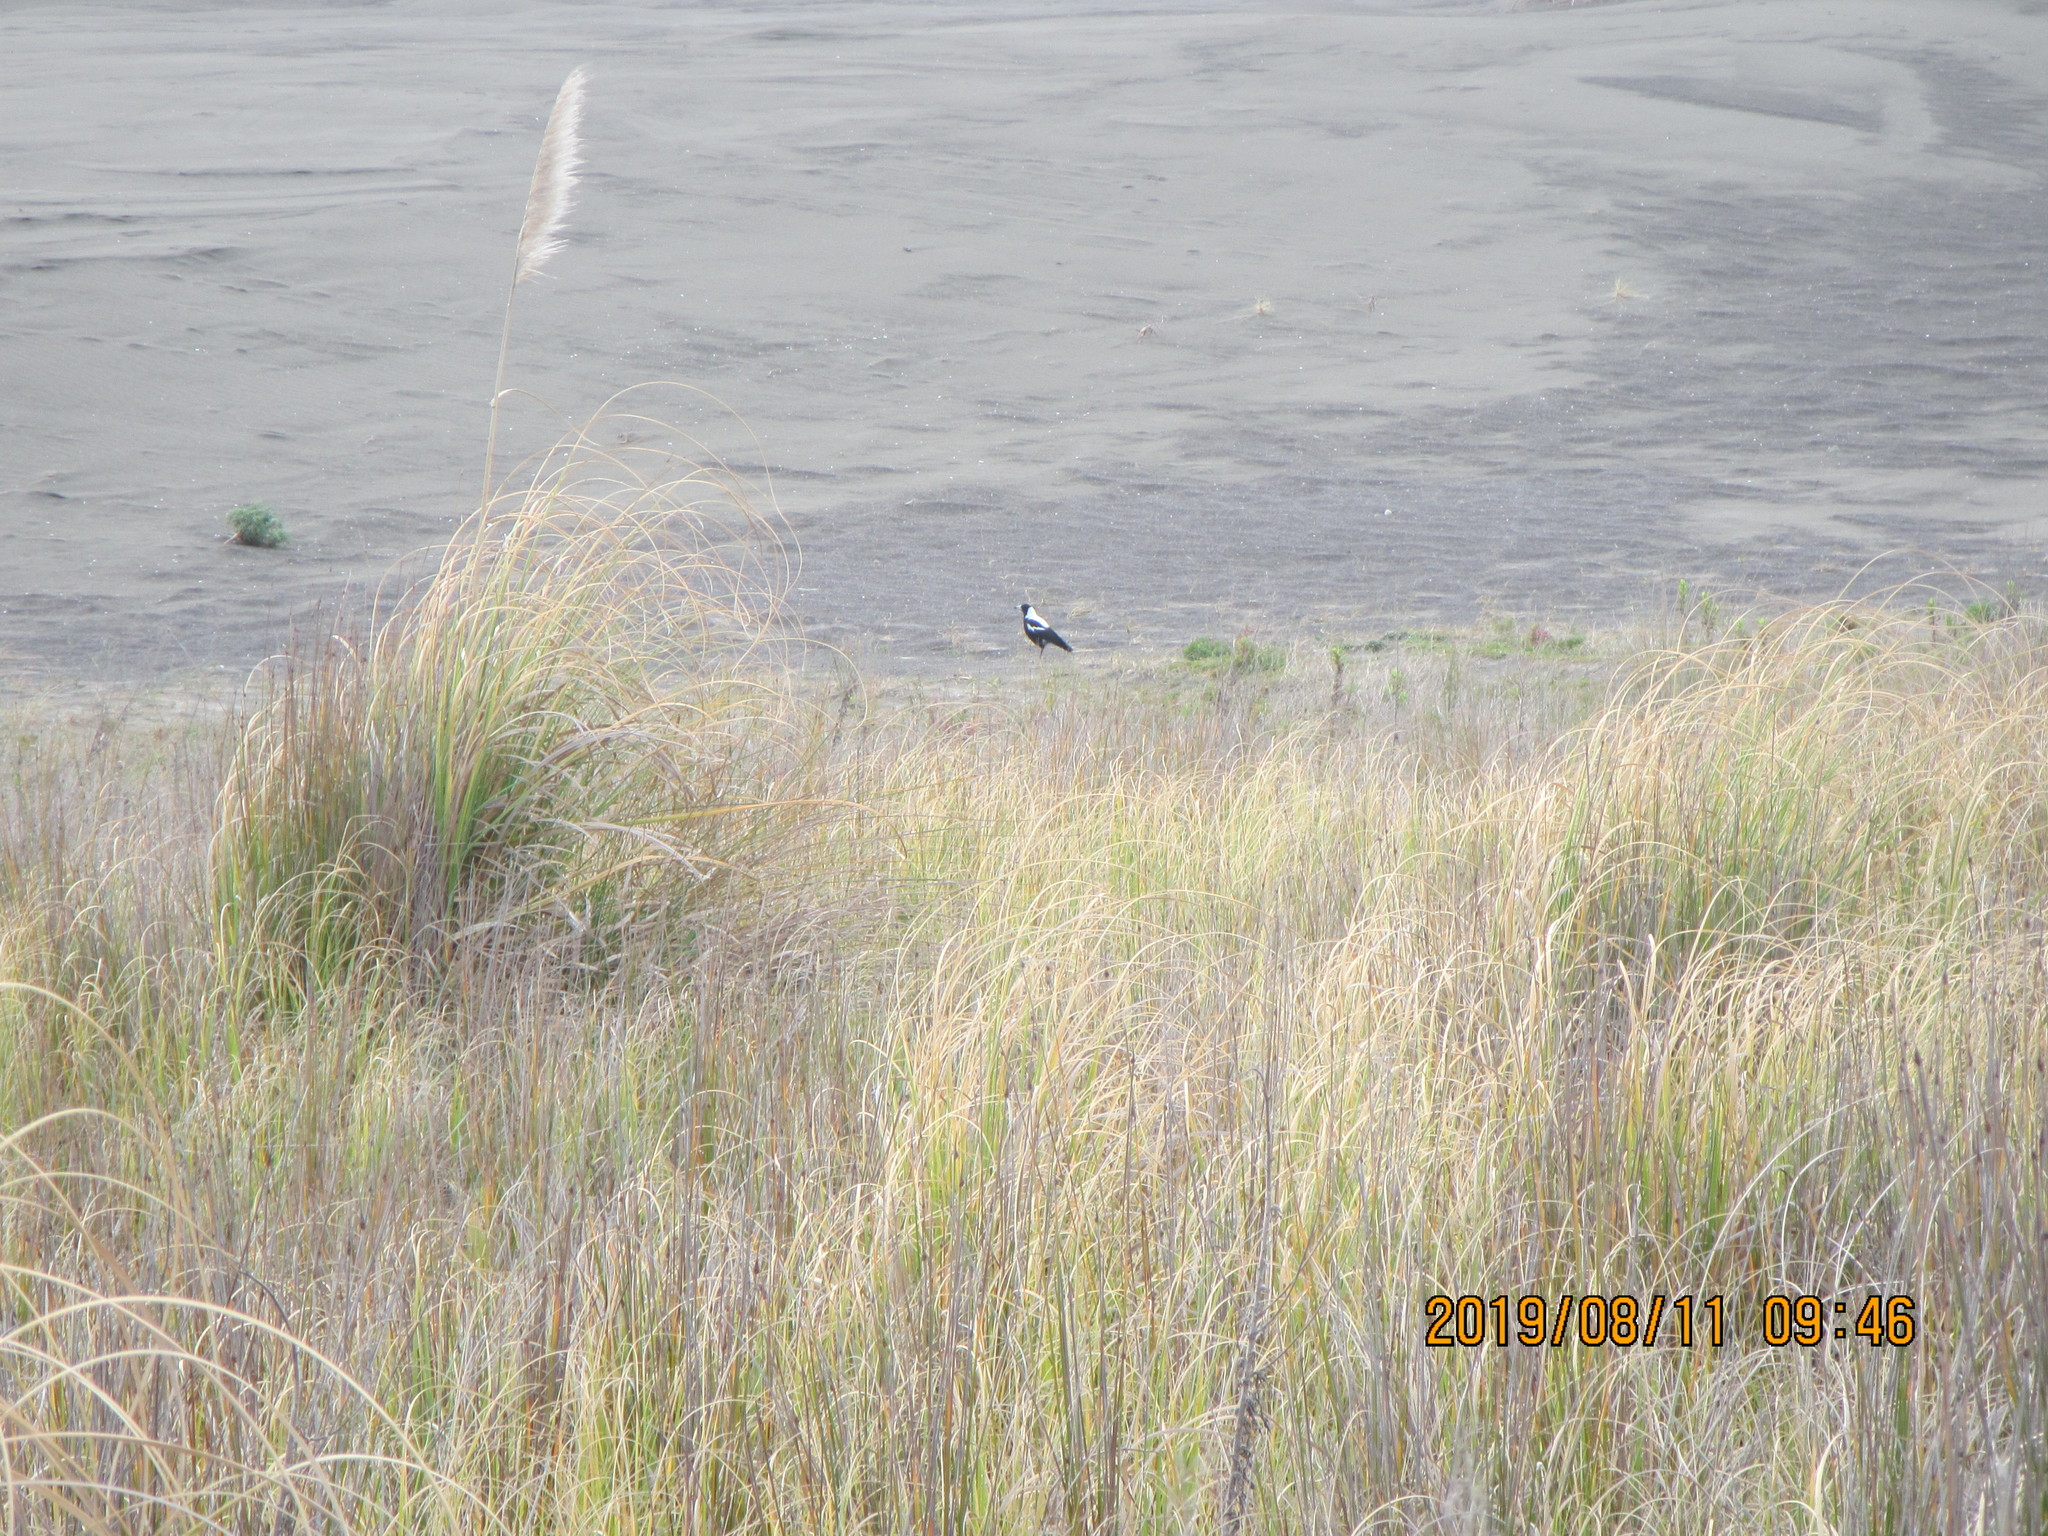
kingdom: Animalia
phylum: Chordata
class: Aves
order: Passeriformes
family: Cracticidae
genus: Gymnorhina
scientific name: Gymnorhina tibicen
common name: Australian magpie
